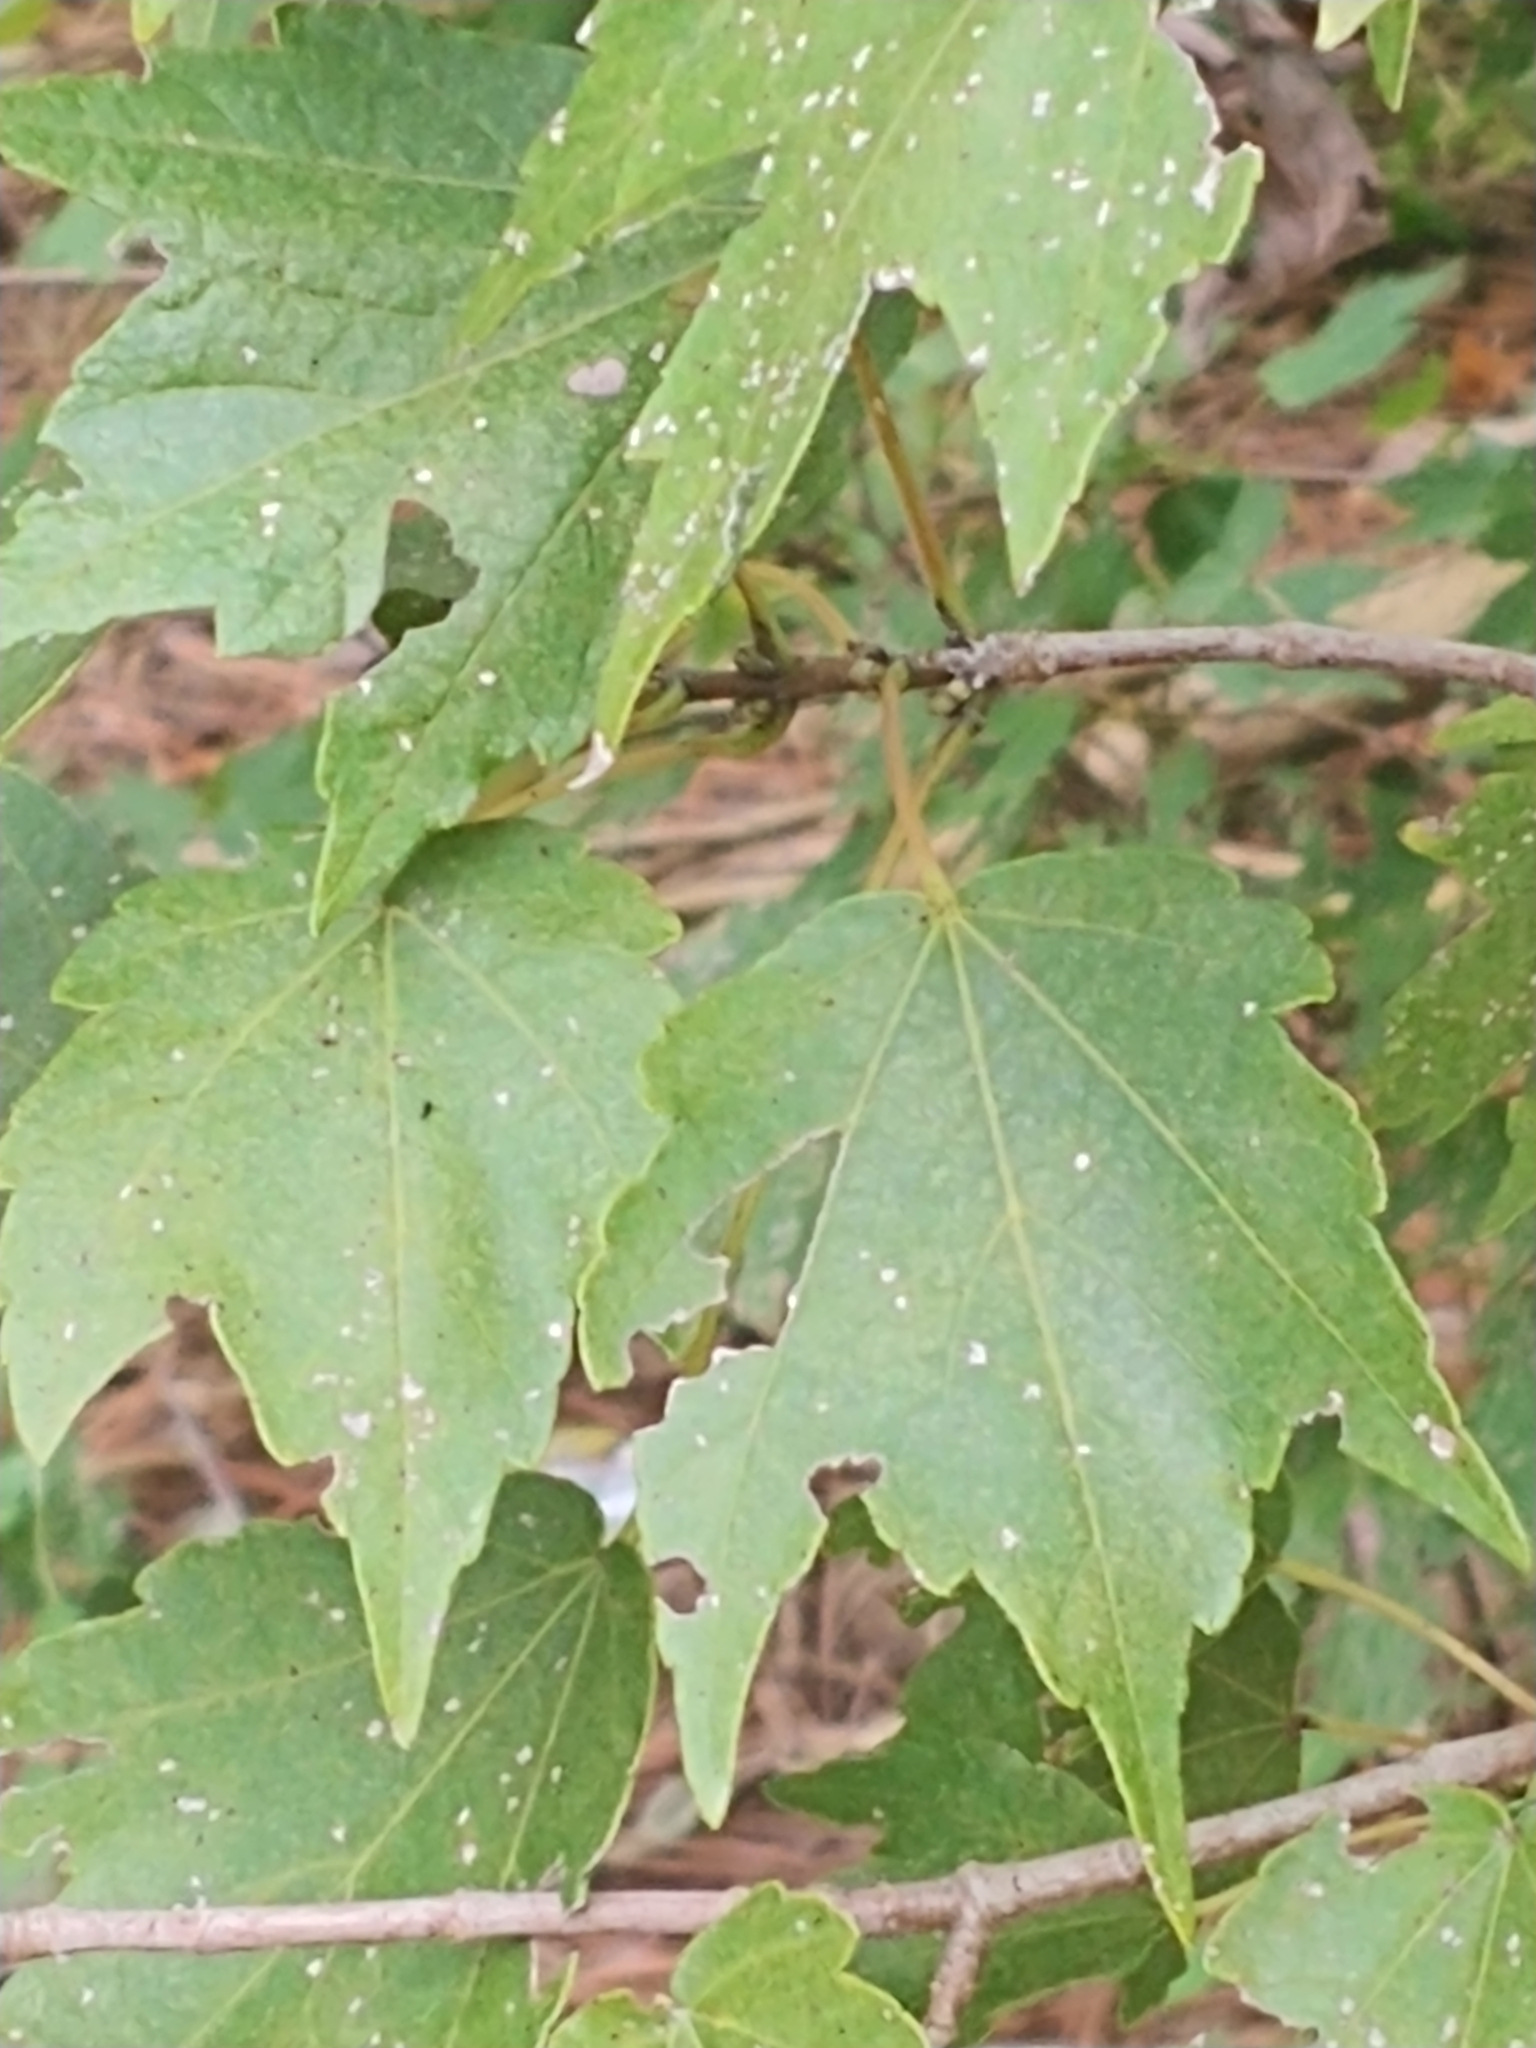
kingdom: Plantae
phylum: Tracheophyta
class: Magnoliopsida
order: Sapindales
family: Sapindaceae
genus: Acer
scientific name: Acer rubrum
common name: Red maple
